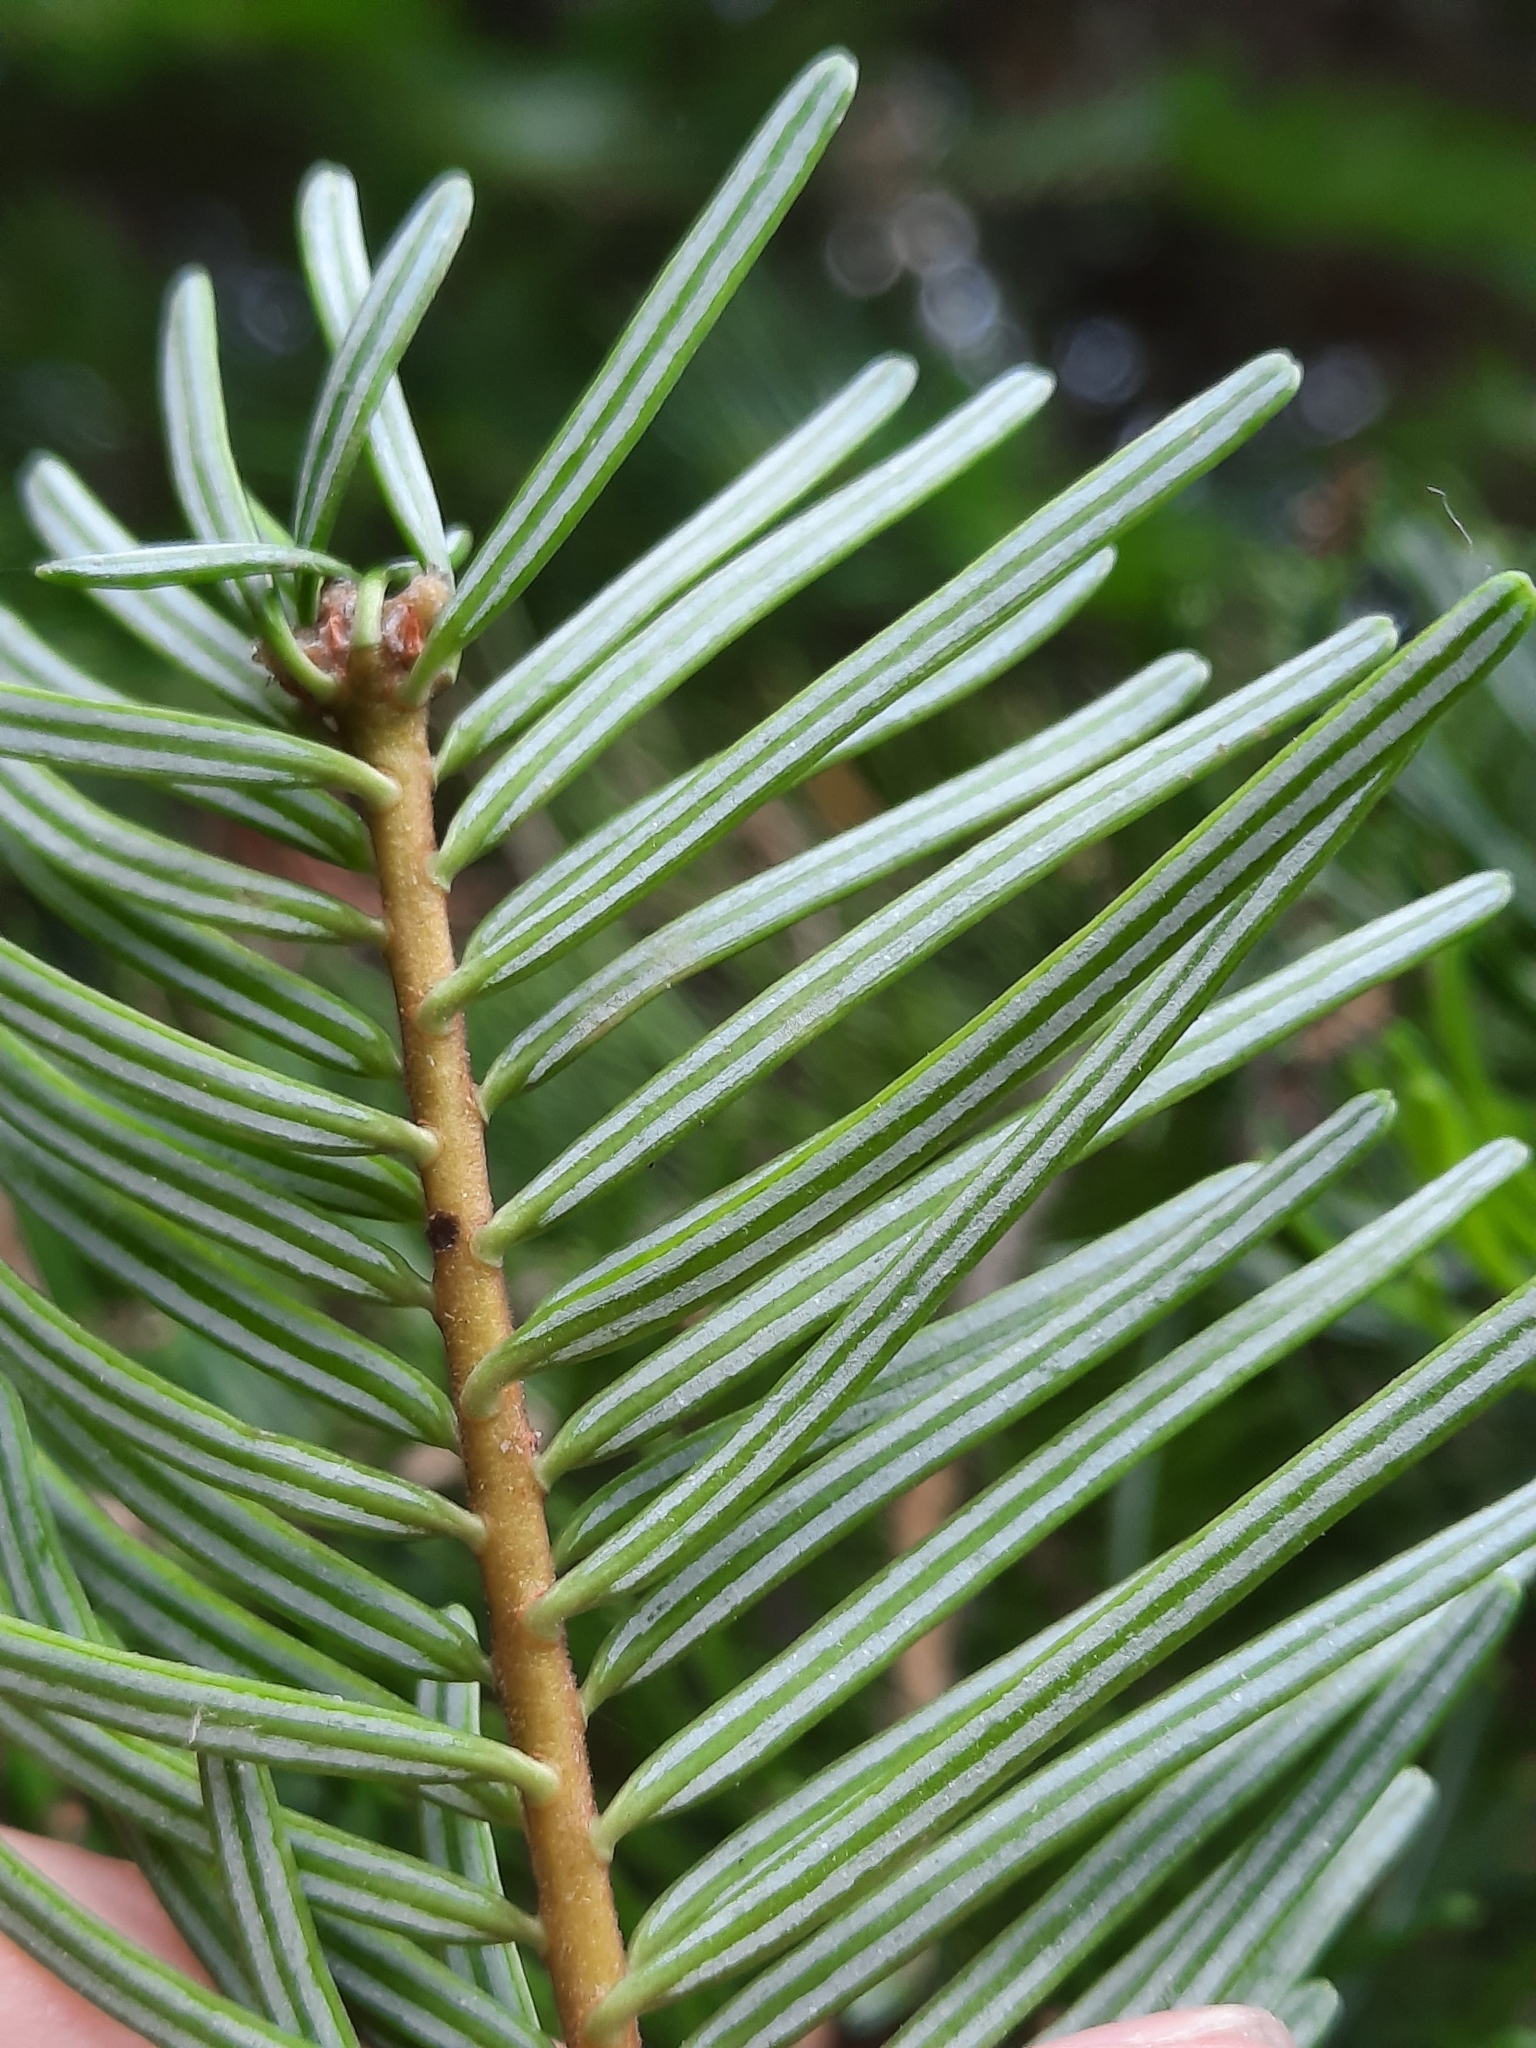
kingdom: Plantae
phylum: Tracheophyta
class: Pinopsida
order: Pinales
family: Pinaceae
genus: Abies
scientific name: Abies grandis
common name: Giant fir
